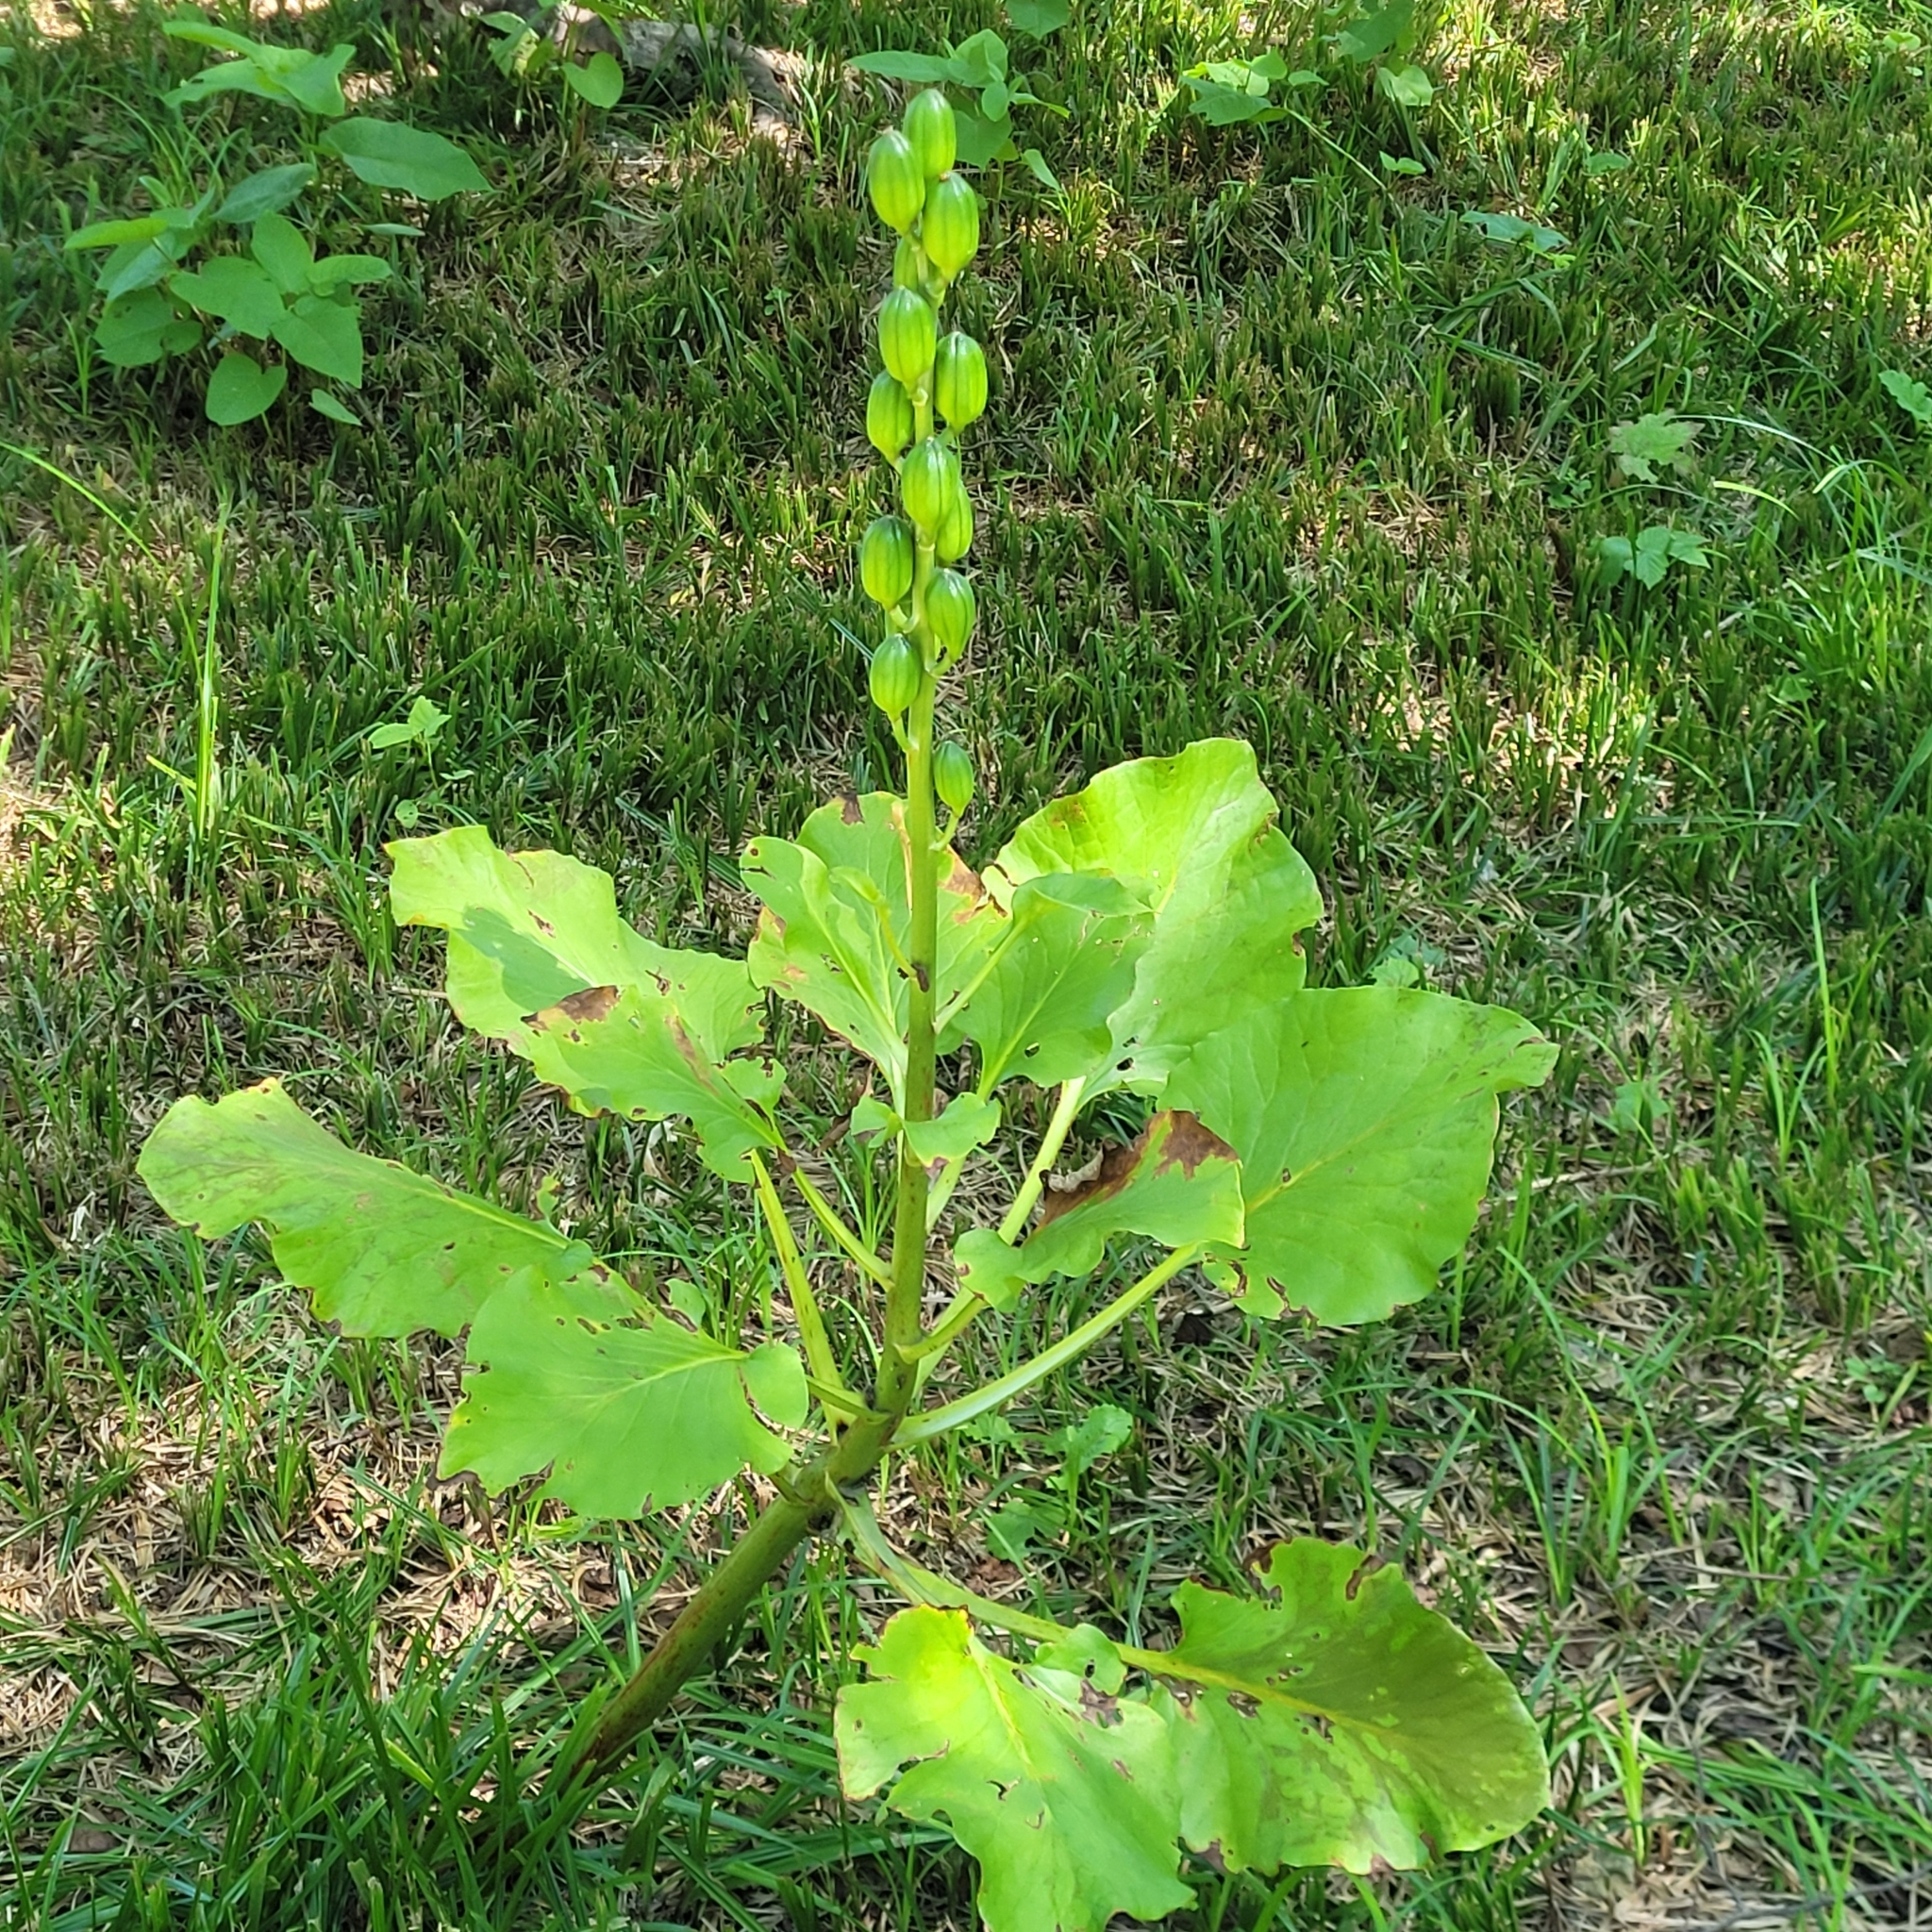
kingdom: Plantae
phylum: Tracheophyta
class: Liliopsida
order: Liliales
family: Liliaceae
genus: Cardiocrinum
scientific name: Cardiocrinum cordatum
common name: Lily
